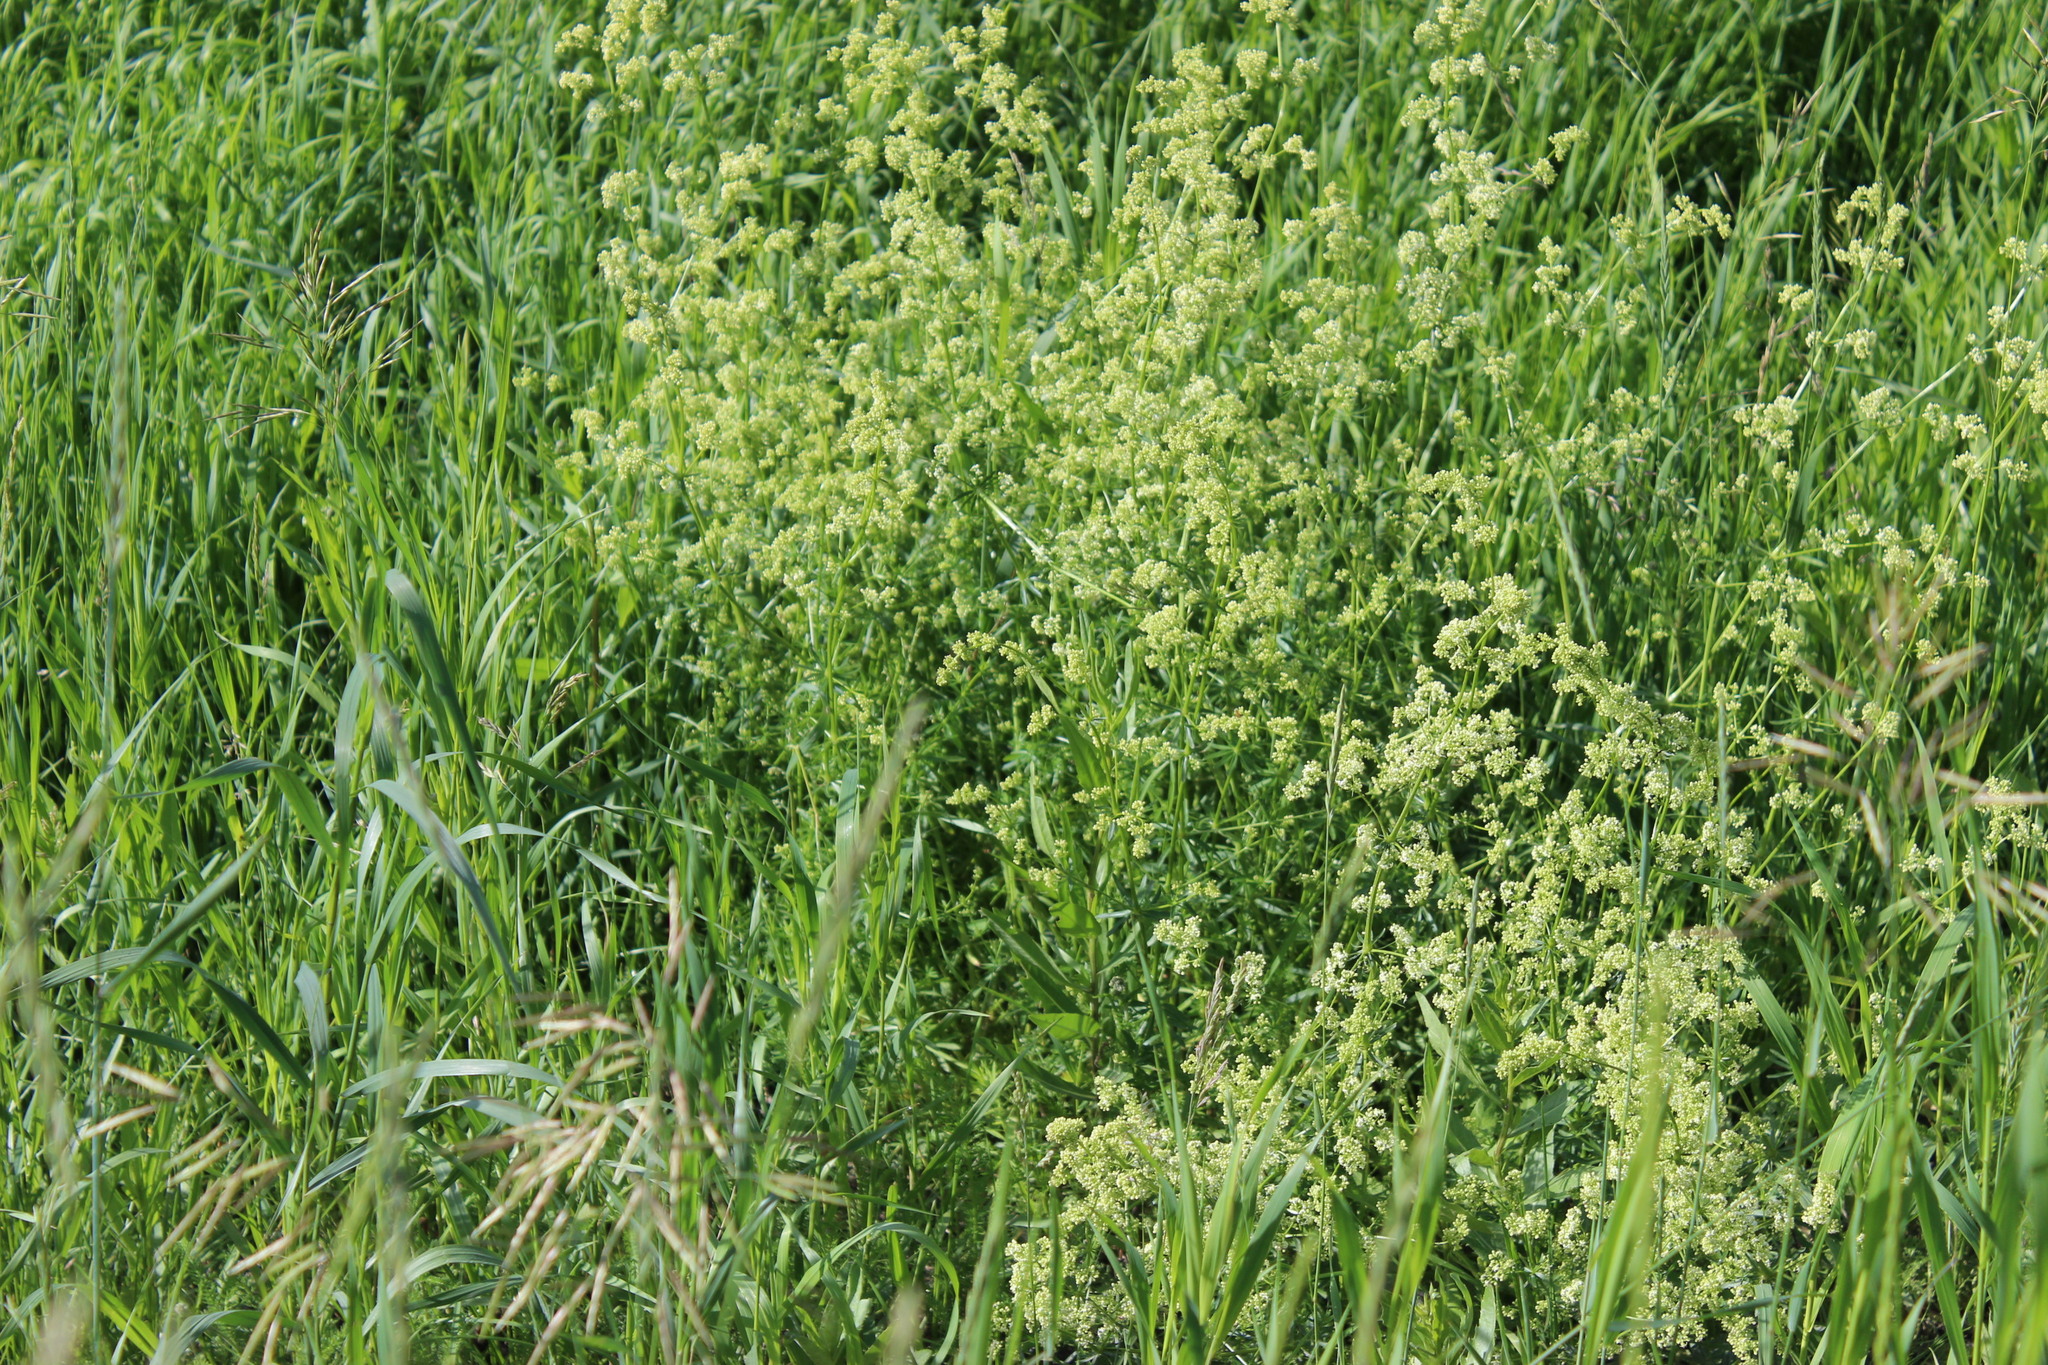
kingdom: Plantae
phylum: Tracheophyta
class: Magnoliopsida
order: Gentianales
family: Rubiaceae
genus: Galium
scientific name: Galium mollugo
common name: Hedge bedstraw
